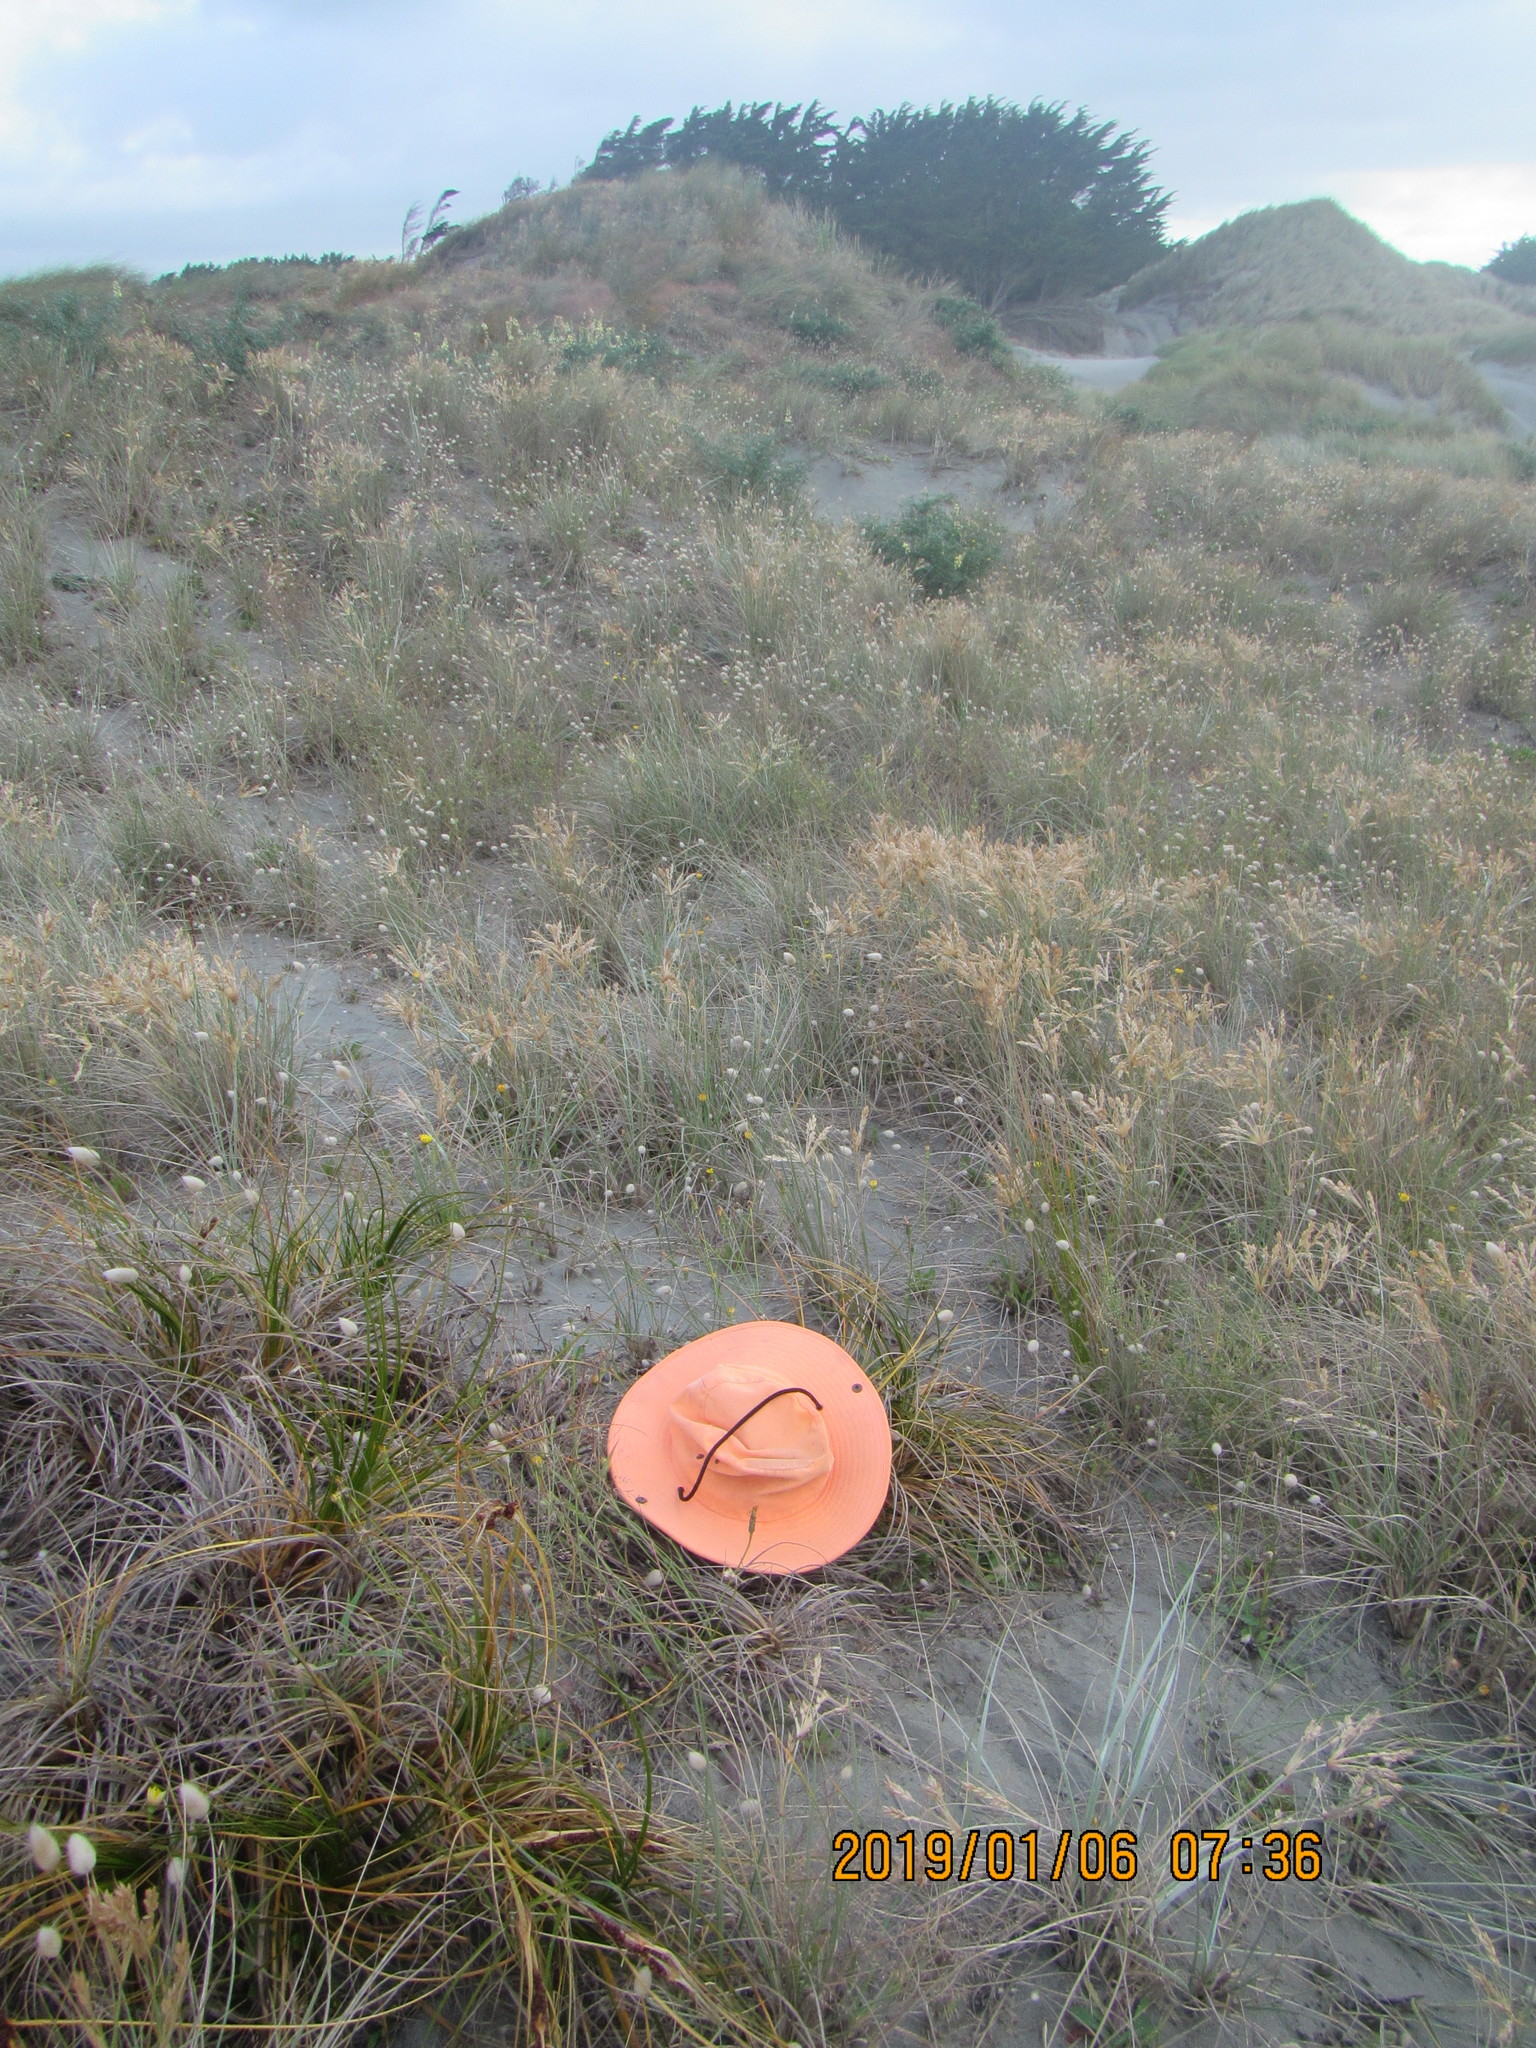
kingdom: Animalia
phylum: Arthropoda
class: Insecta
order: Hymenoptera
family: Sphecidae
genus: Podalonia
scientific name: Podalonia tydei
